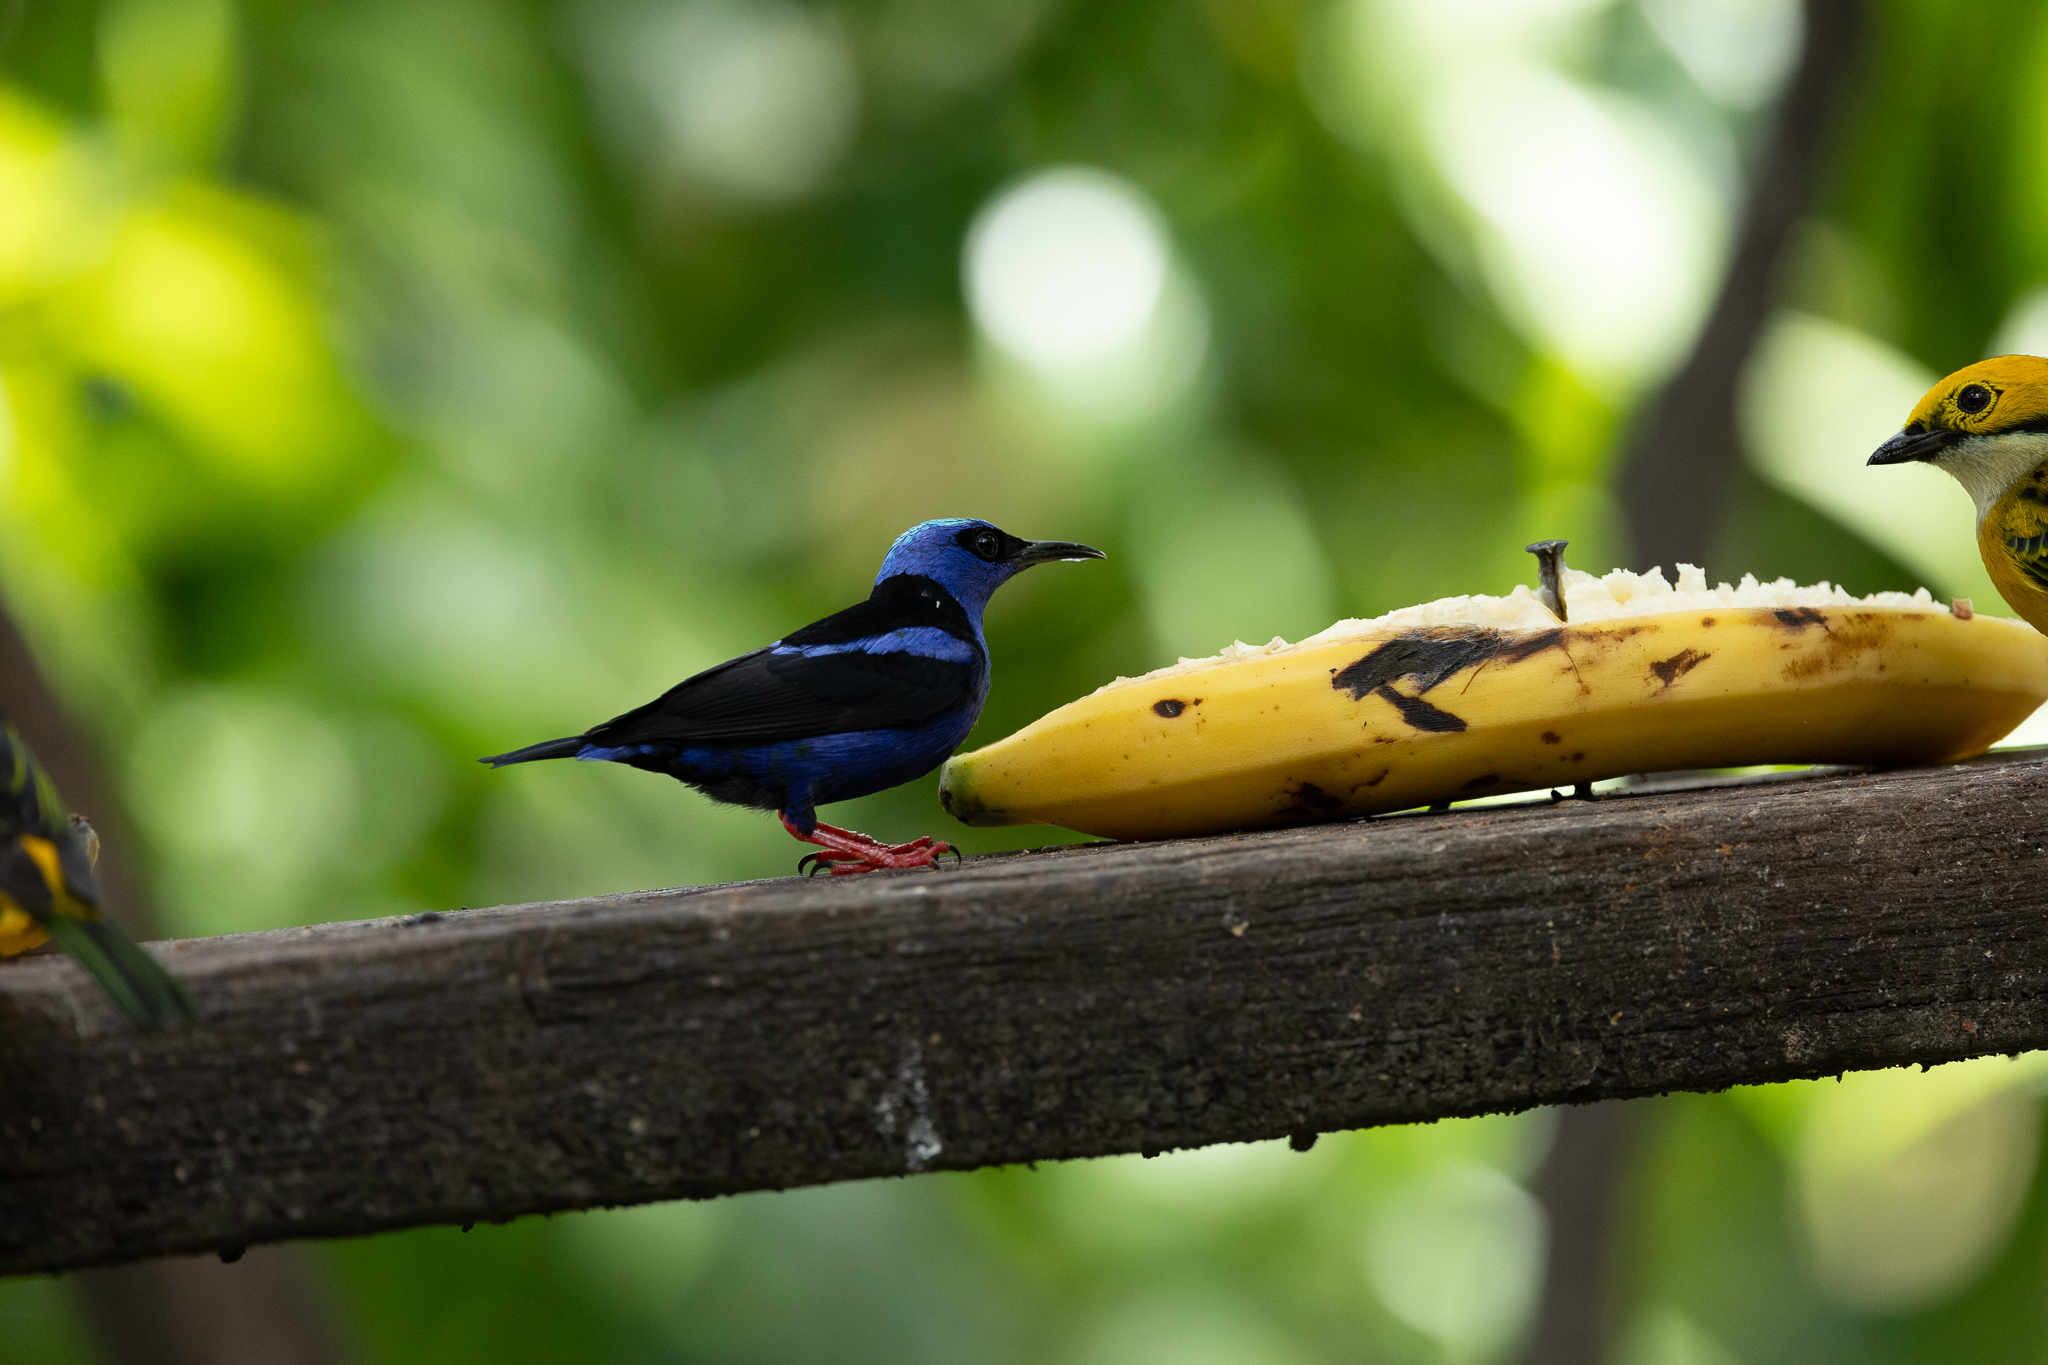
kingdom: Animalia
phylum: Chordata
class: Aves
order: Passeriformes
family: Thraupidae
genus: Cyanerpes
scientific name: Cyanerpes cyaneus
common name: Red-legged honeycreeper
